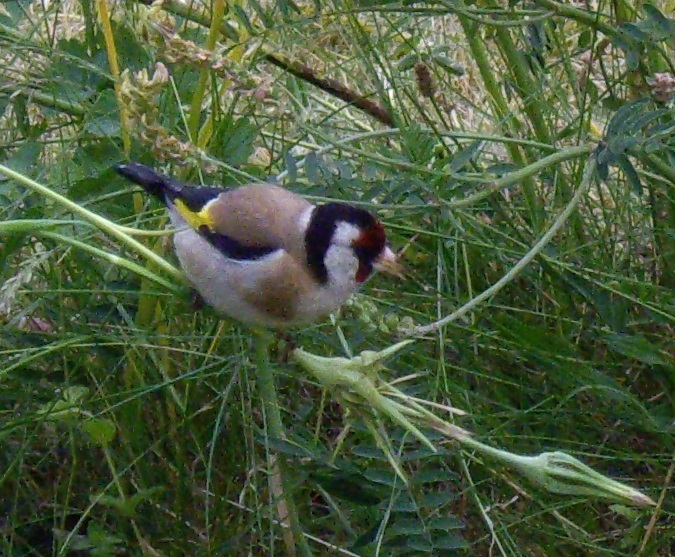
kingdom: Animalia
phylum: Chordata
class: Aves
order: Passeriformes
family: Fringillidae
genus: Carduelis
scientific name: Carduelis carduelis
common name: European goldfinch
